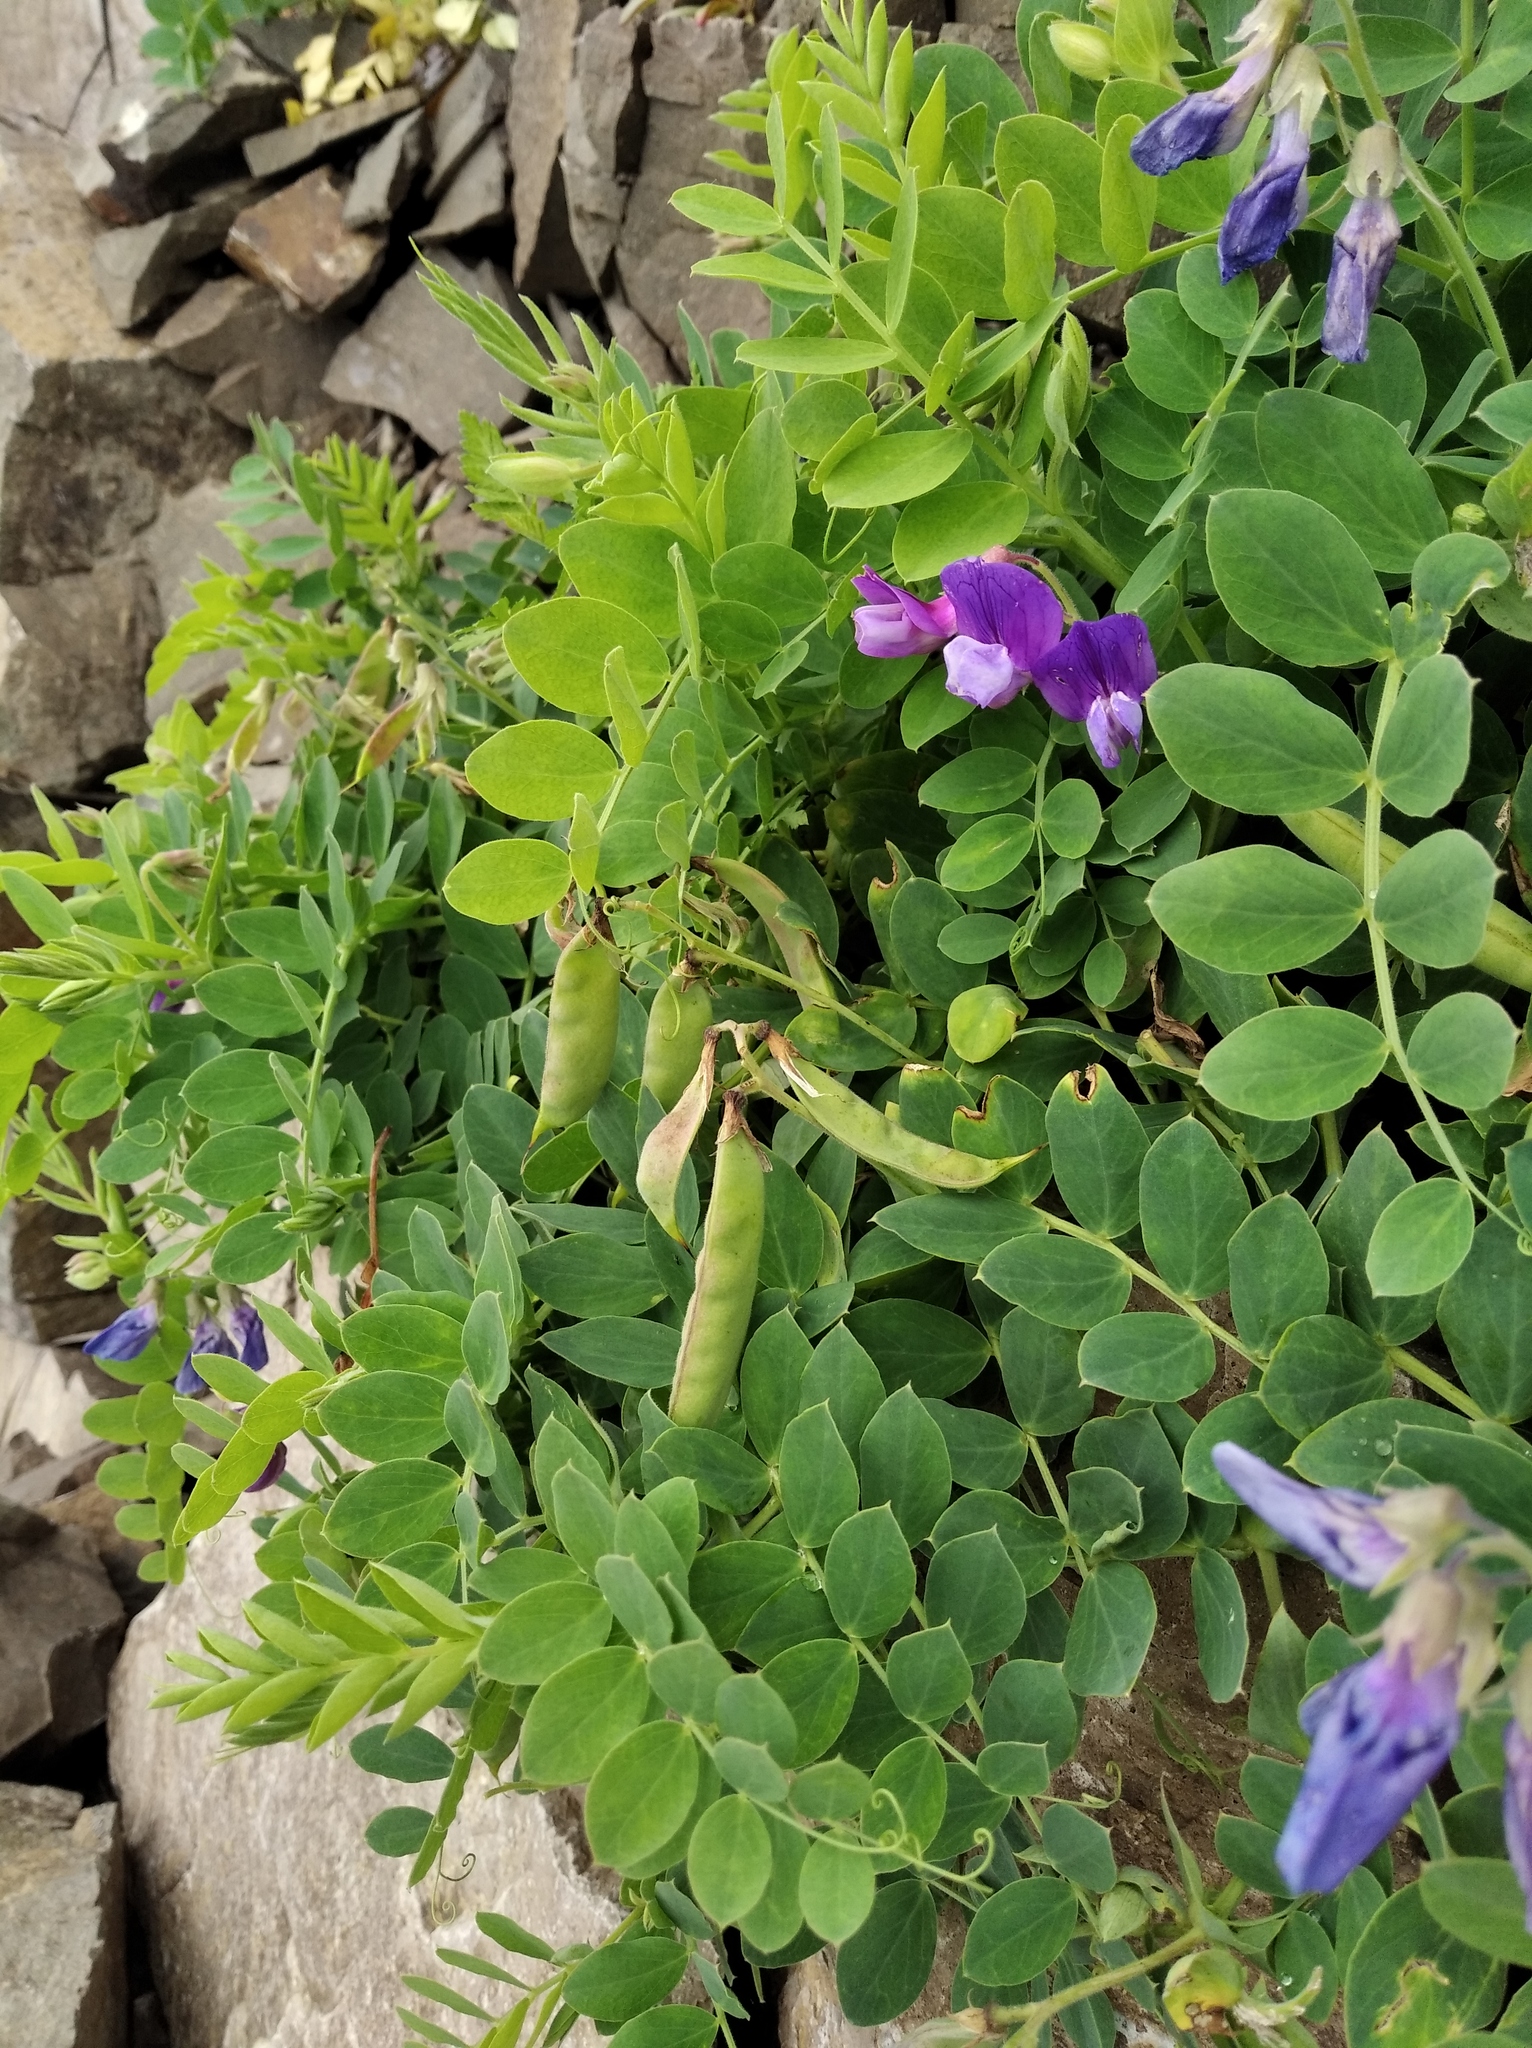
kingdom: Plantae
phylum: Tracheophyta
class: Magnoliopsida
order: Fabales
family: Fabaceae
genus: Lathyrus
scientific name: Lathyrus japonicus
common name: Sea pea
